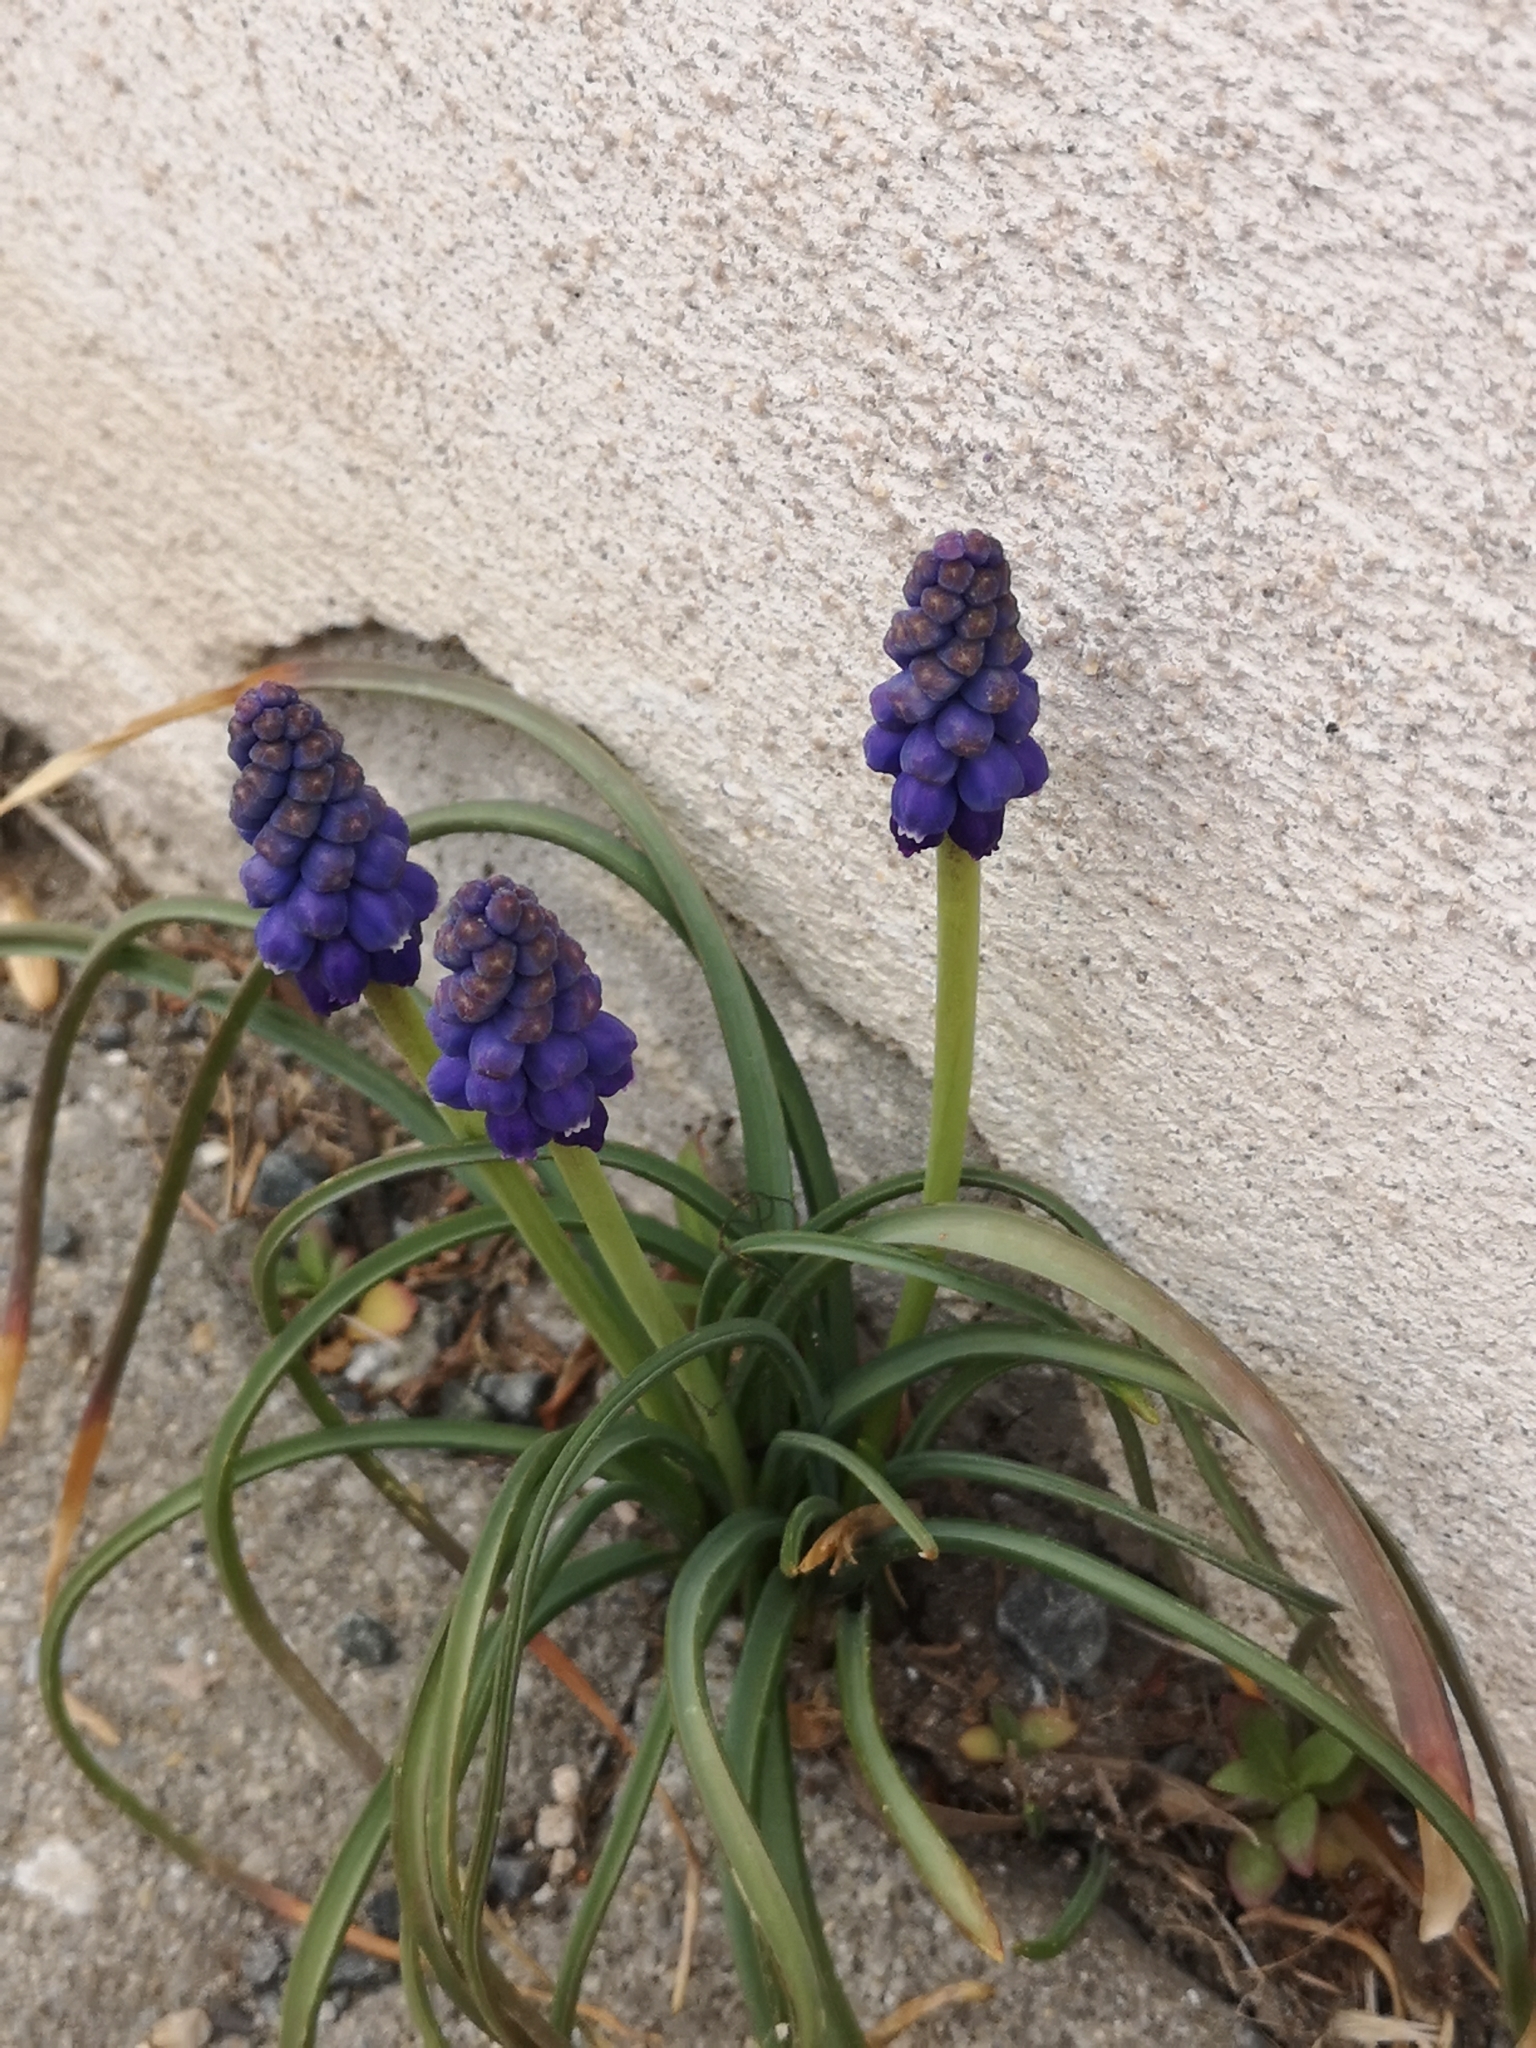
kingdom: Plantae
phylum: Tracheophyta
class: Liliopsida
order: Asparagales
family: Asparagaceae
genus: Muscari
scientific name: Muscari armeniacum
